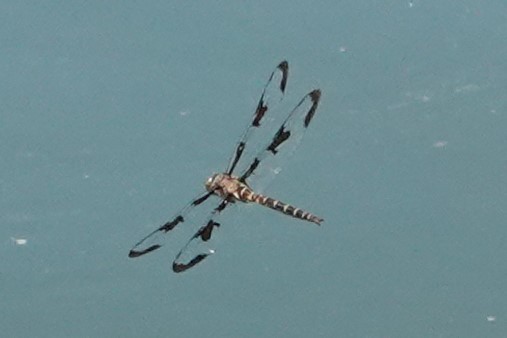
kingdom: Animalia
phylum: Arthropoda
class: Insecta
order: Odonata
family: Corduliidae
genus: Epitheca
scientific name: Epitheca princeps
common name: Prince baskettail
